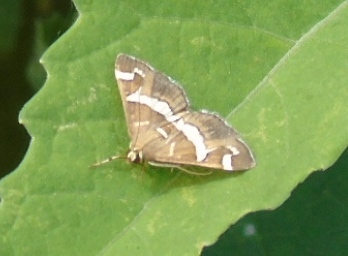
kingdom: Animalia
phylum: Arthropoda
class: Insecta
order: Lepidoptera
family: Crambidae
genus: Spoladea
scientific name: Spoladea recurvalis
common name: Beet webworm moth
